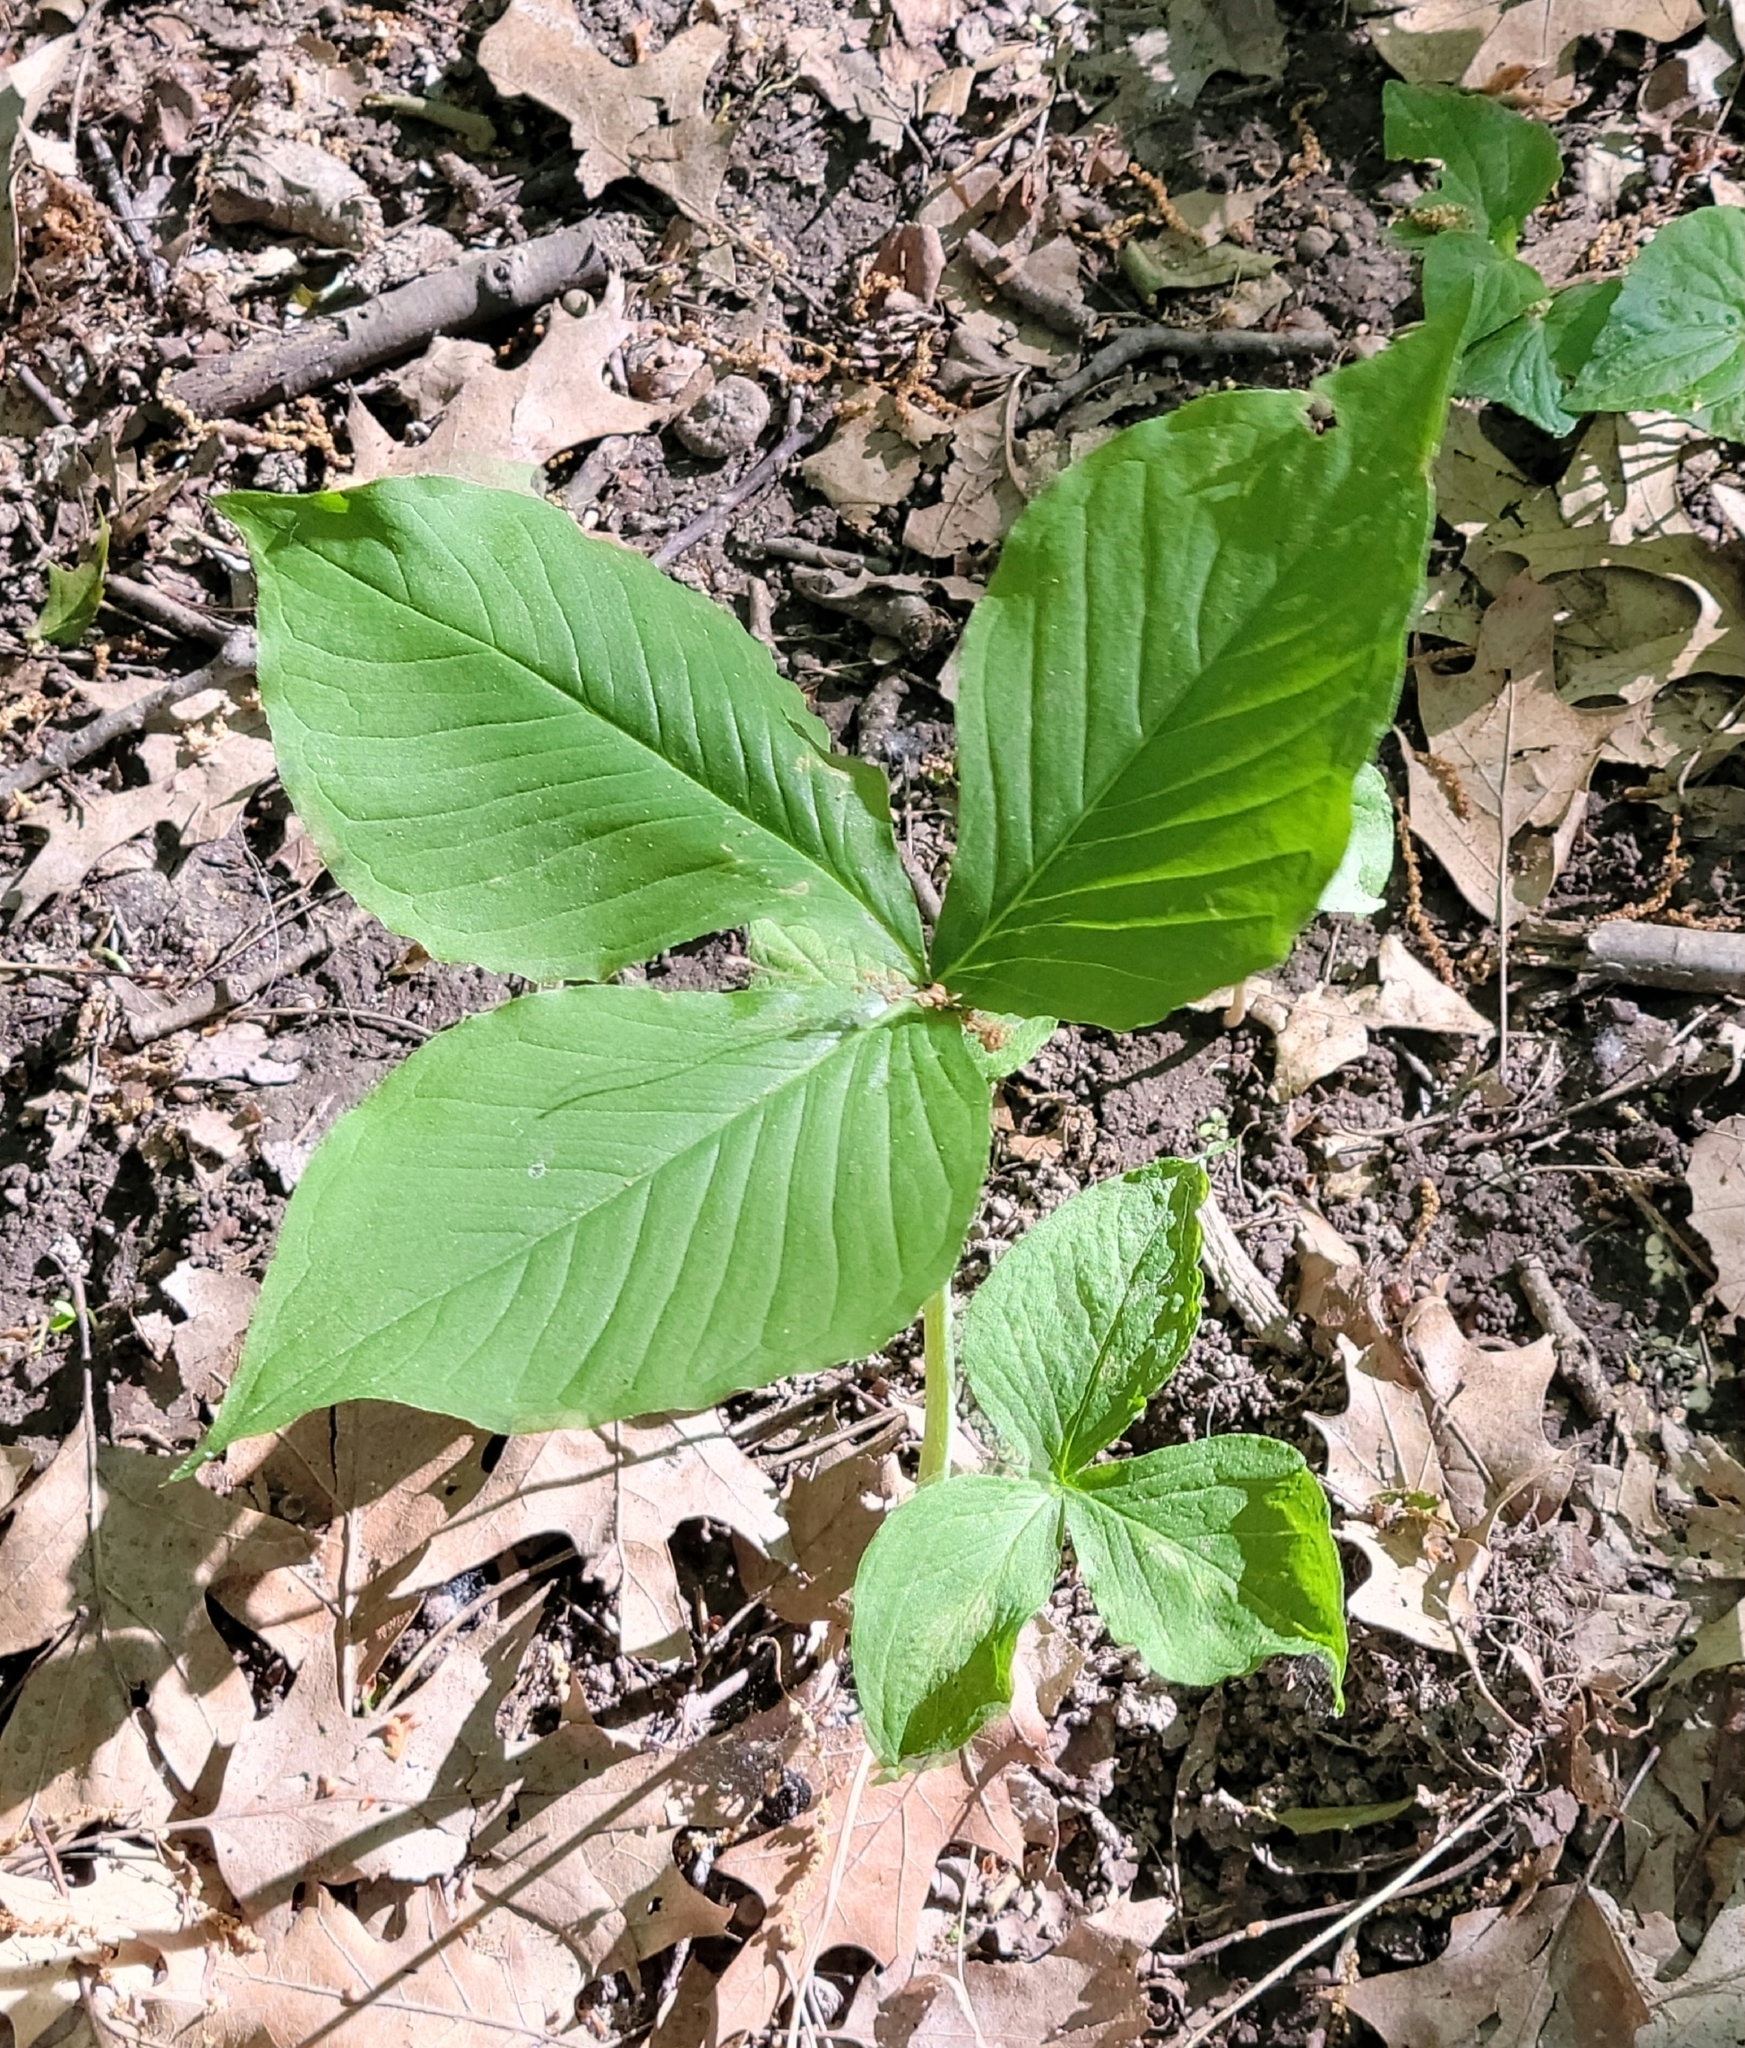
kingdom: Plantae
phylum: Tracheophyta
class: Liliopsida
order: Alismatales
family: Araceae
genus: Arisaema
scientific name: Arisaema triphyllum
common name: Jack-in-the-pulpit
